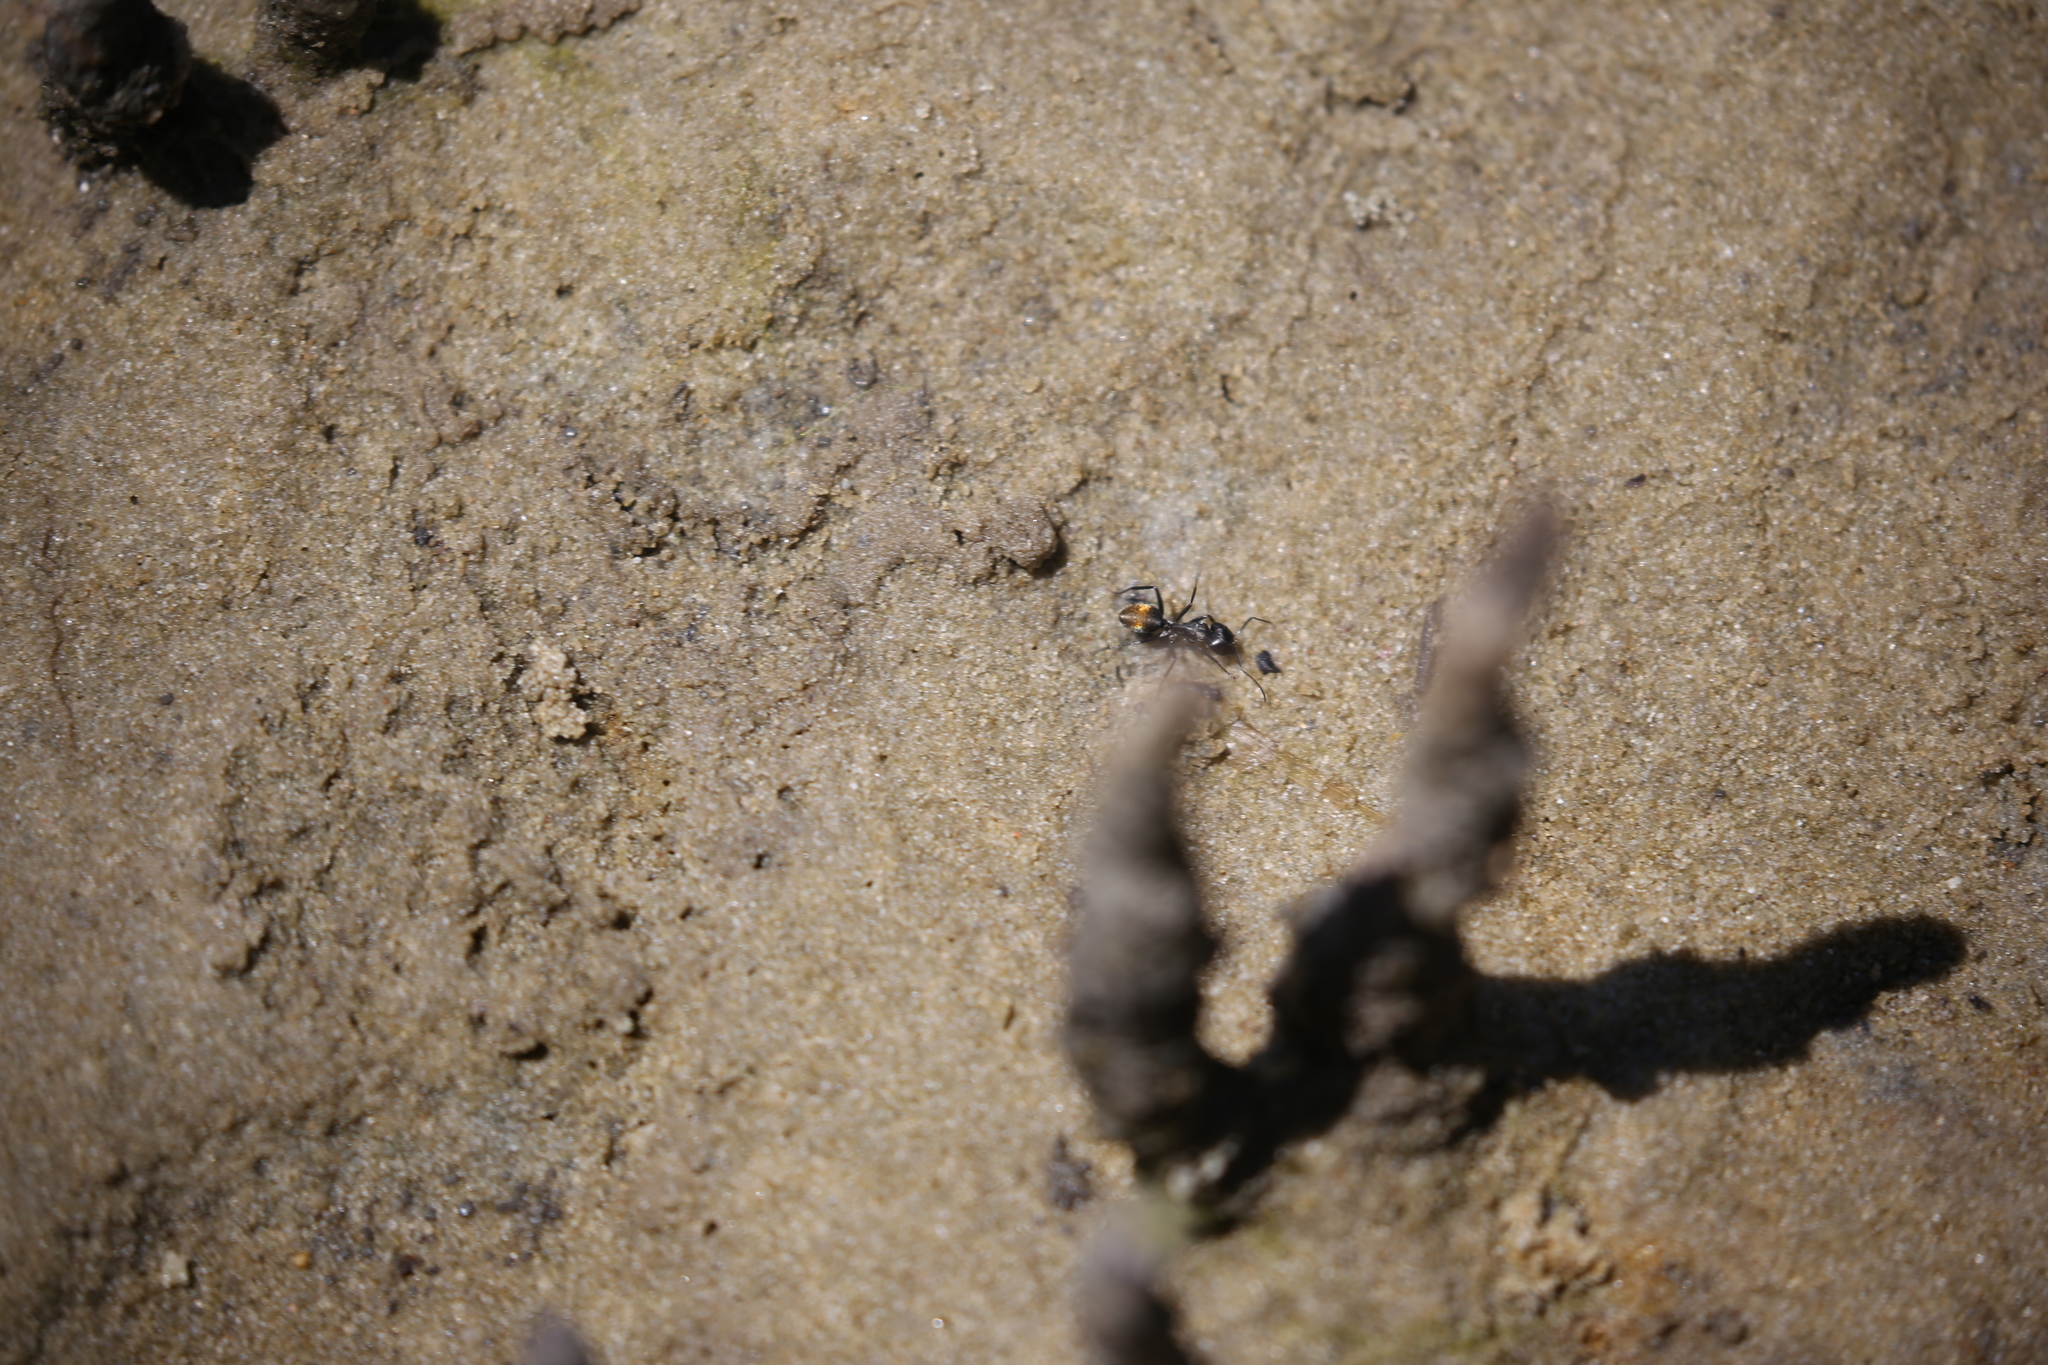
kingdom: Animalia
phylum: Arthropoda
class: Insecta
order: Hymenoptera
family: Formicidae
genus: Camponotus
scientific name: Camponotus aeneopilosus
